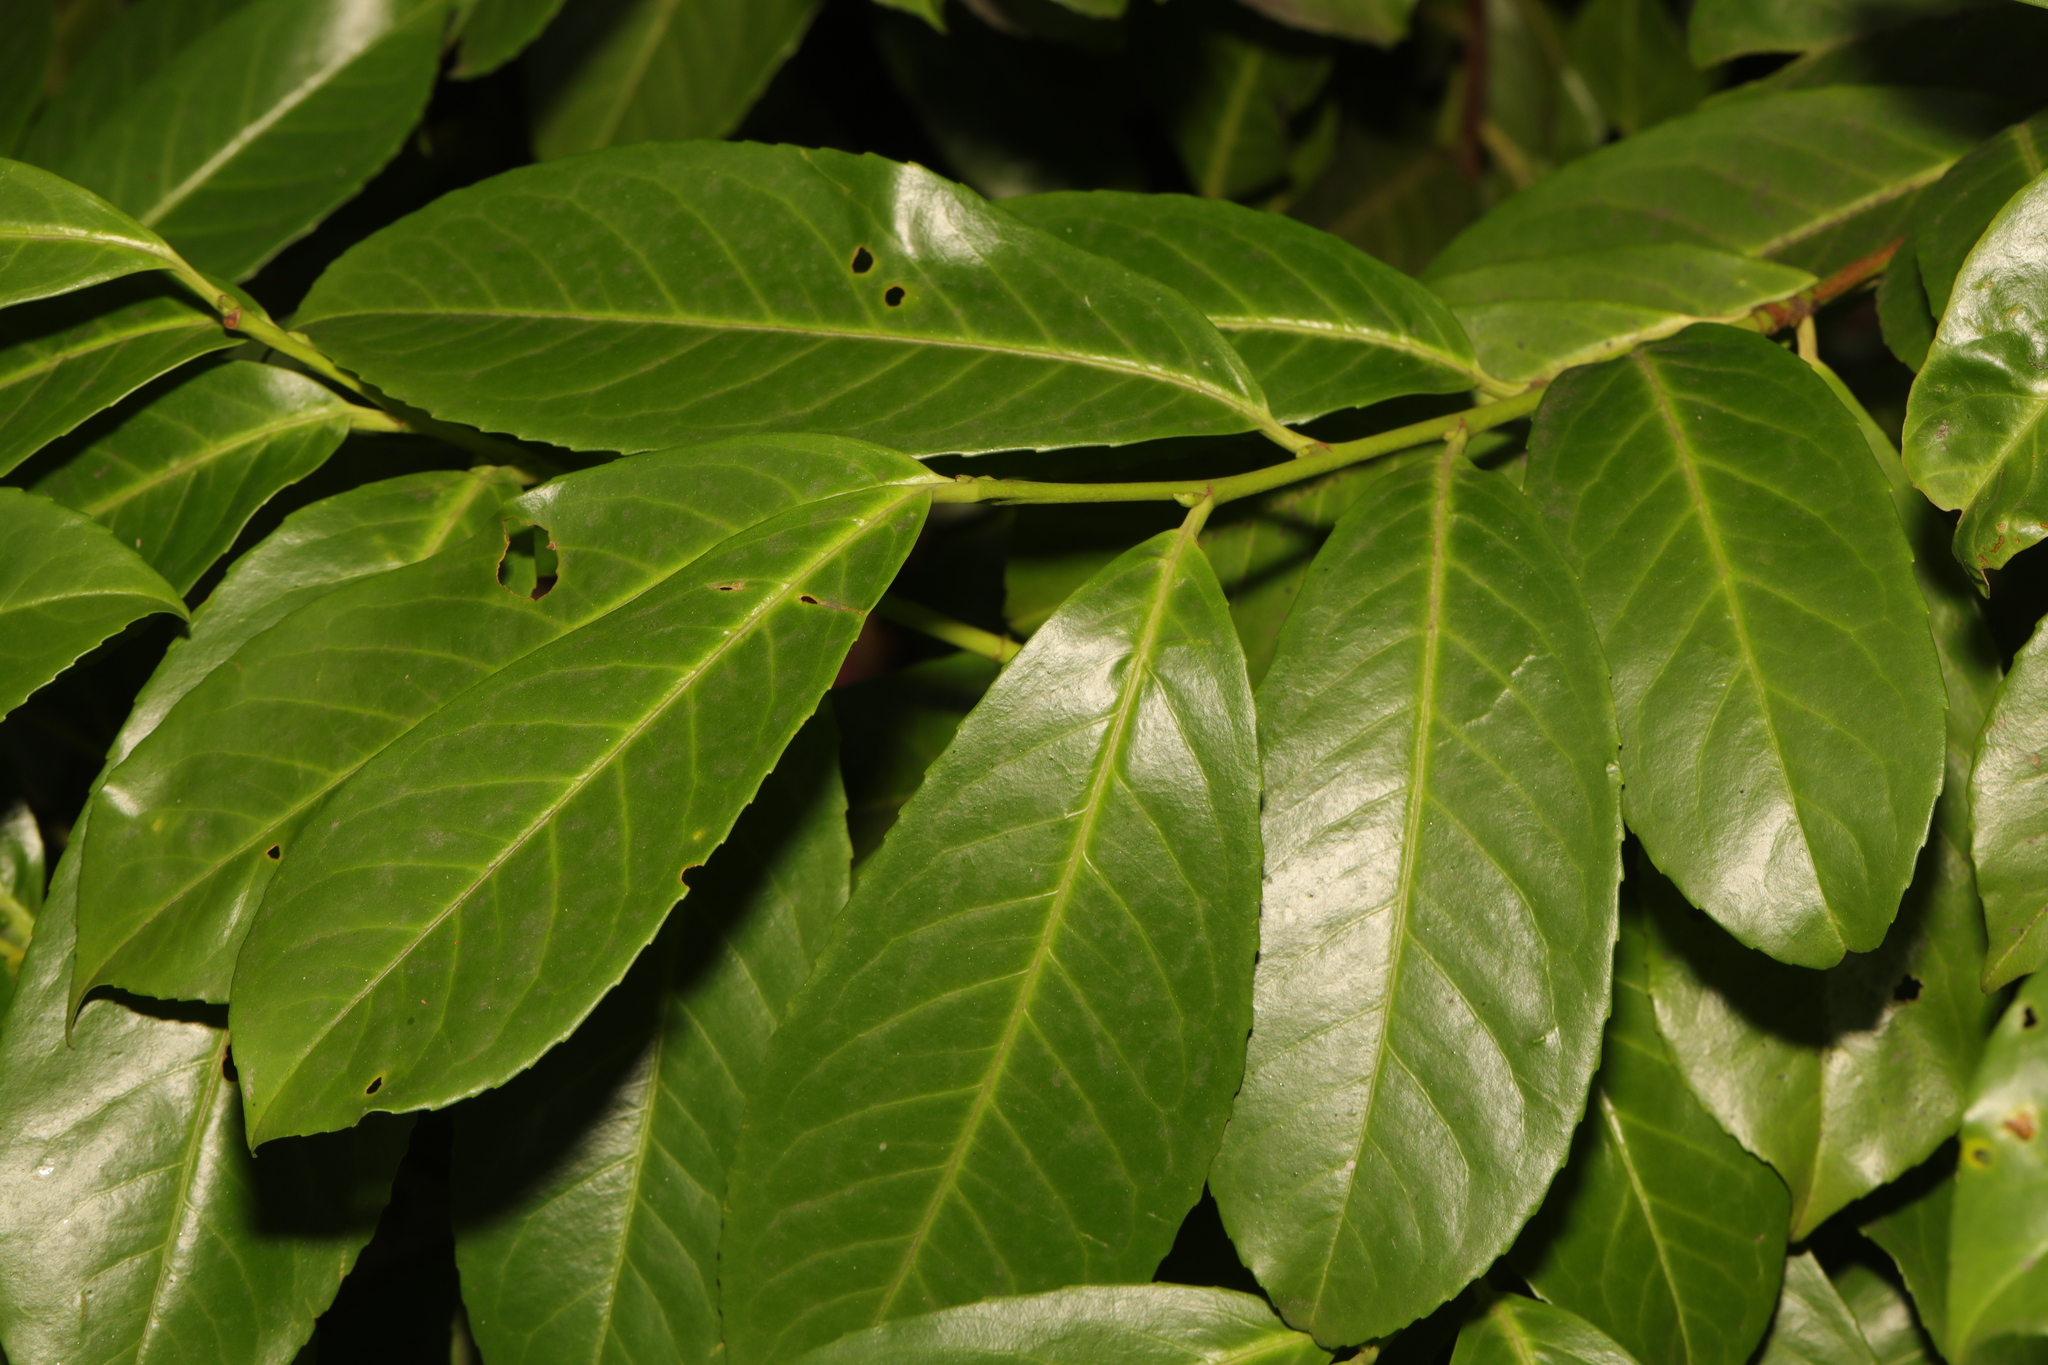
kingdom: Plantae
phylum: Tracheophyta
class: Magnoliopsida
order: Rosales
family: Rosaceae
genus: Prunus
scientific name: Prunus laurocerasus
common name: Cherry laurel
